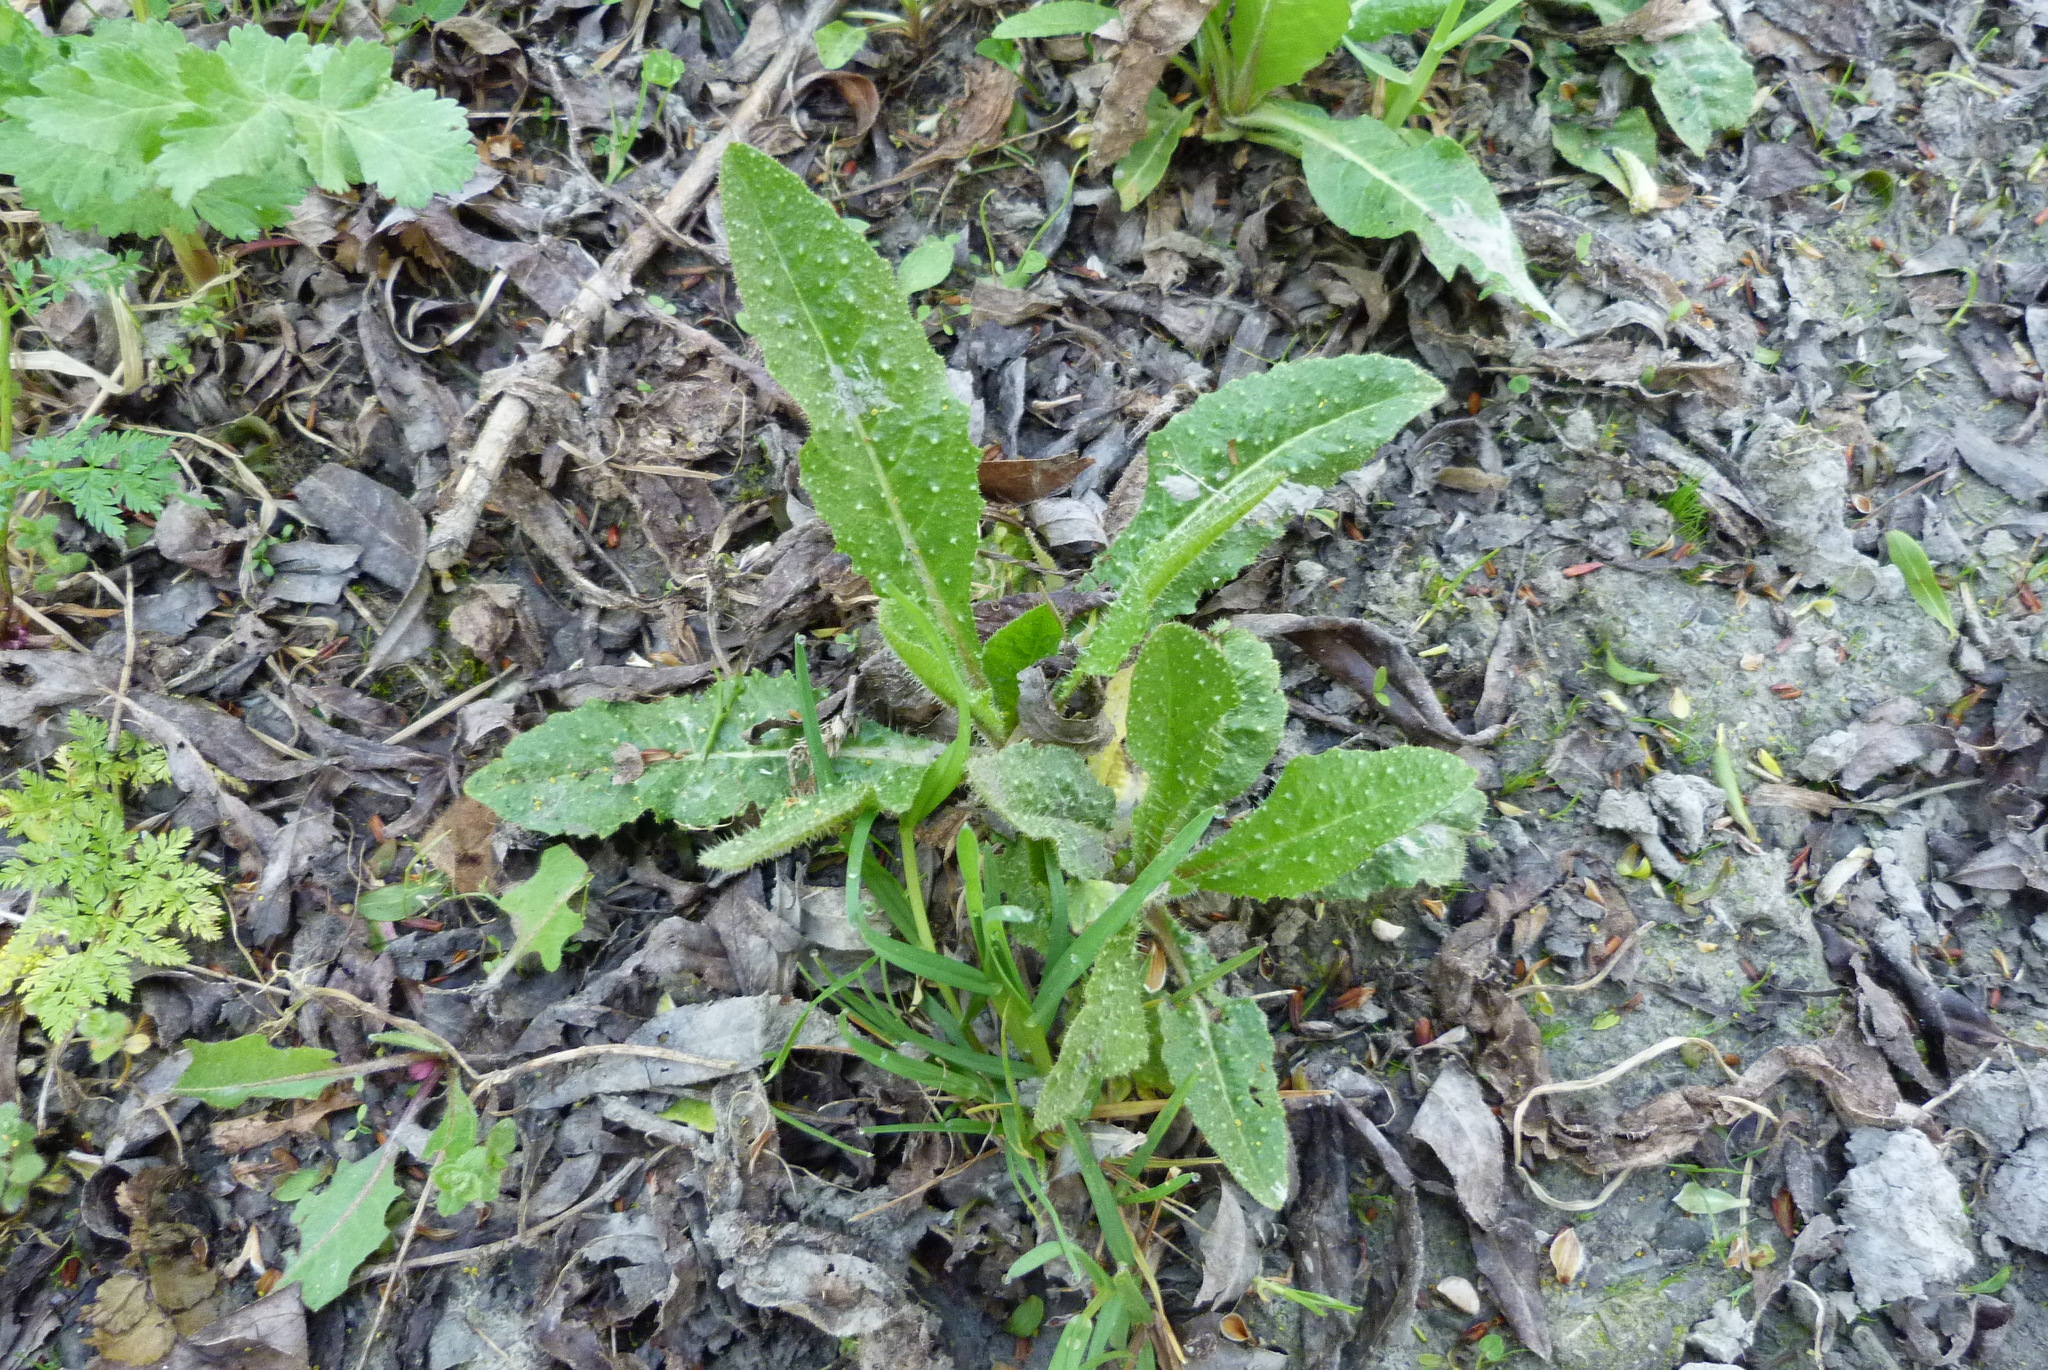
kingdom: Plantae
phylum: Tracheophyta
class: Magnoliopsida
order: Asterales
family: Asteraceae
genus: Helminthotheca
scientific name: Helminthotheca echioides
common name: Ox-tongue
